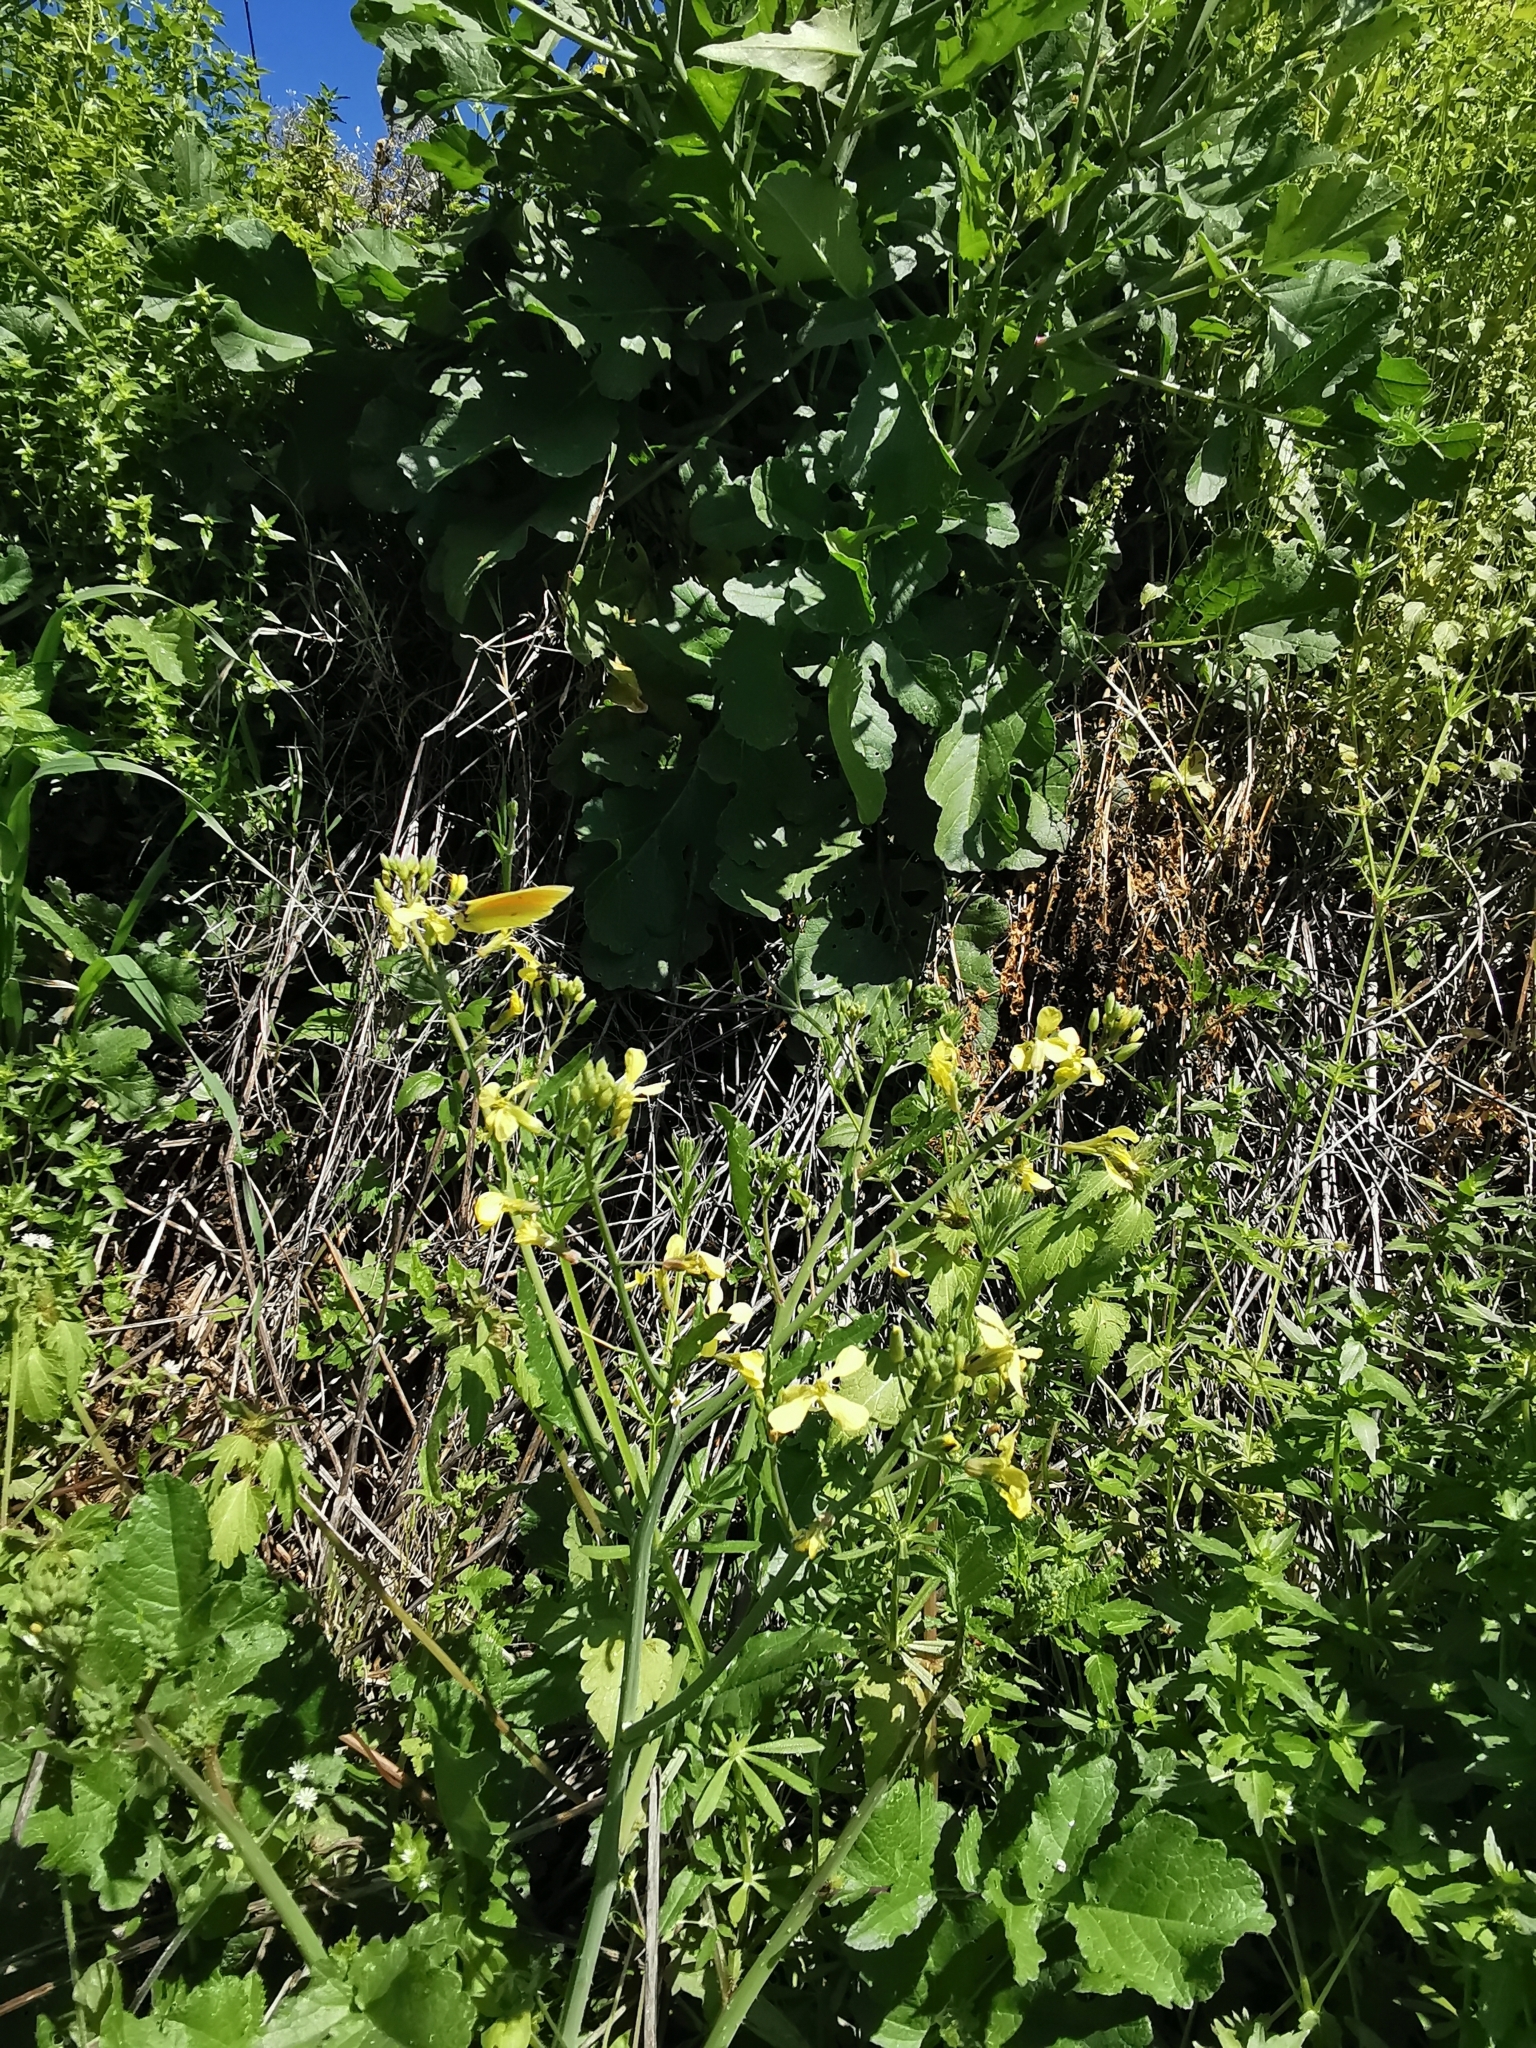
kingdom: Animalia
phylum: Arthropoda
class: Insecta
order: Lepidoptera
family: Pieridae
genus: Gonepteryx
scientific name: Gonepteryx cleopatra
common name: Cleopatra
